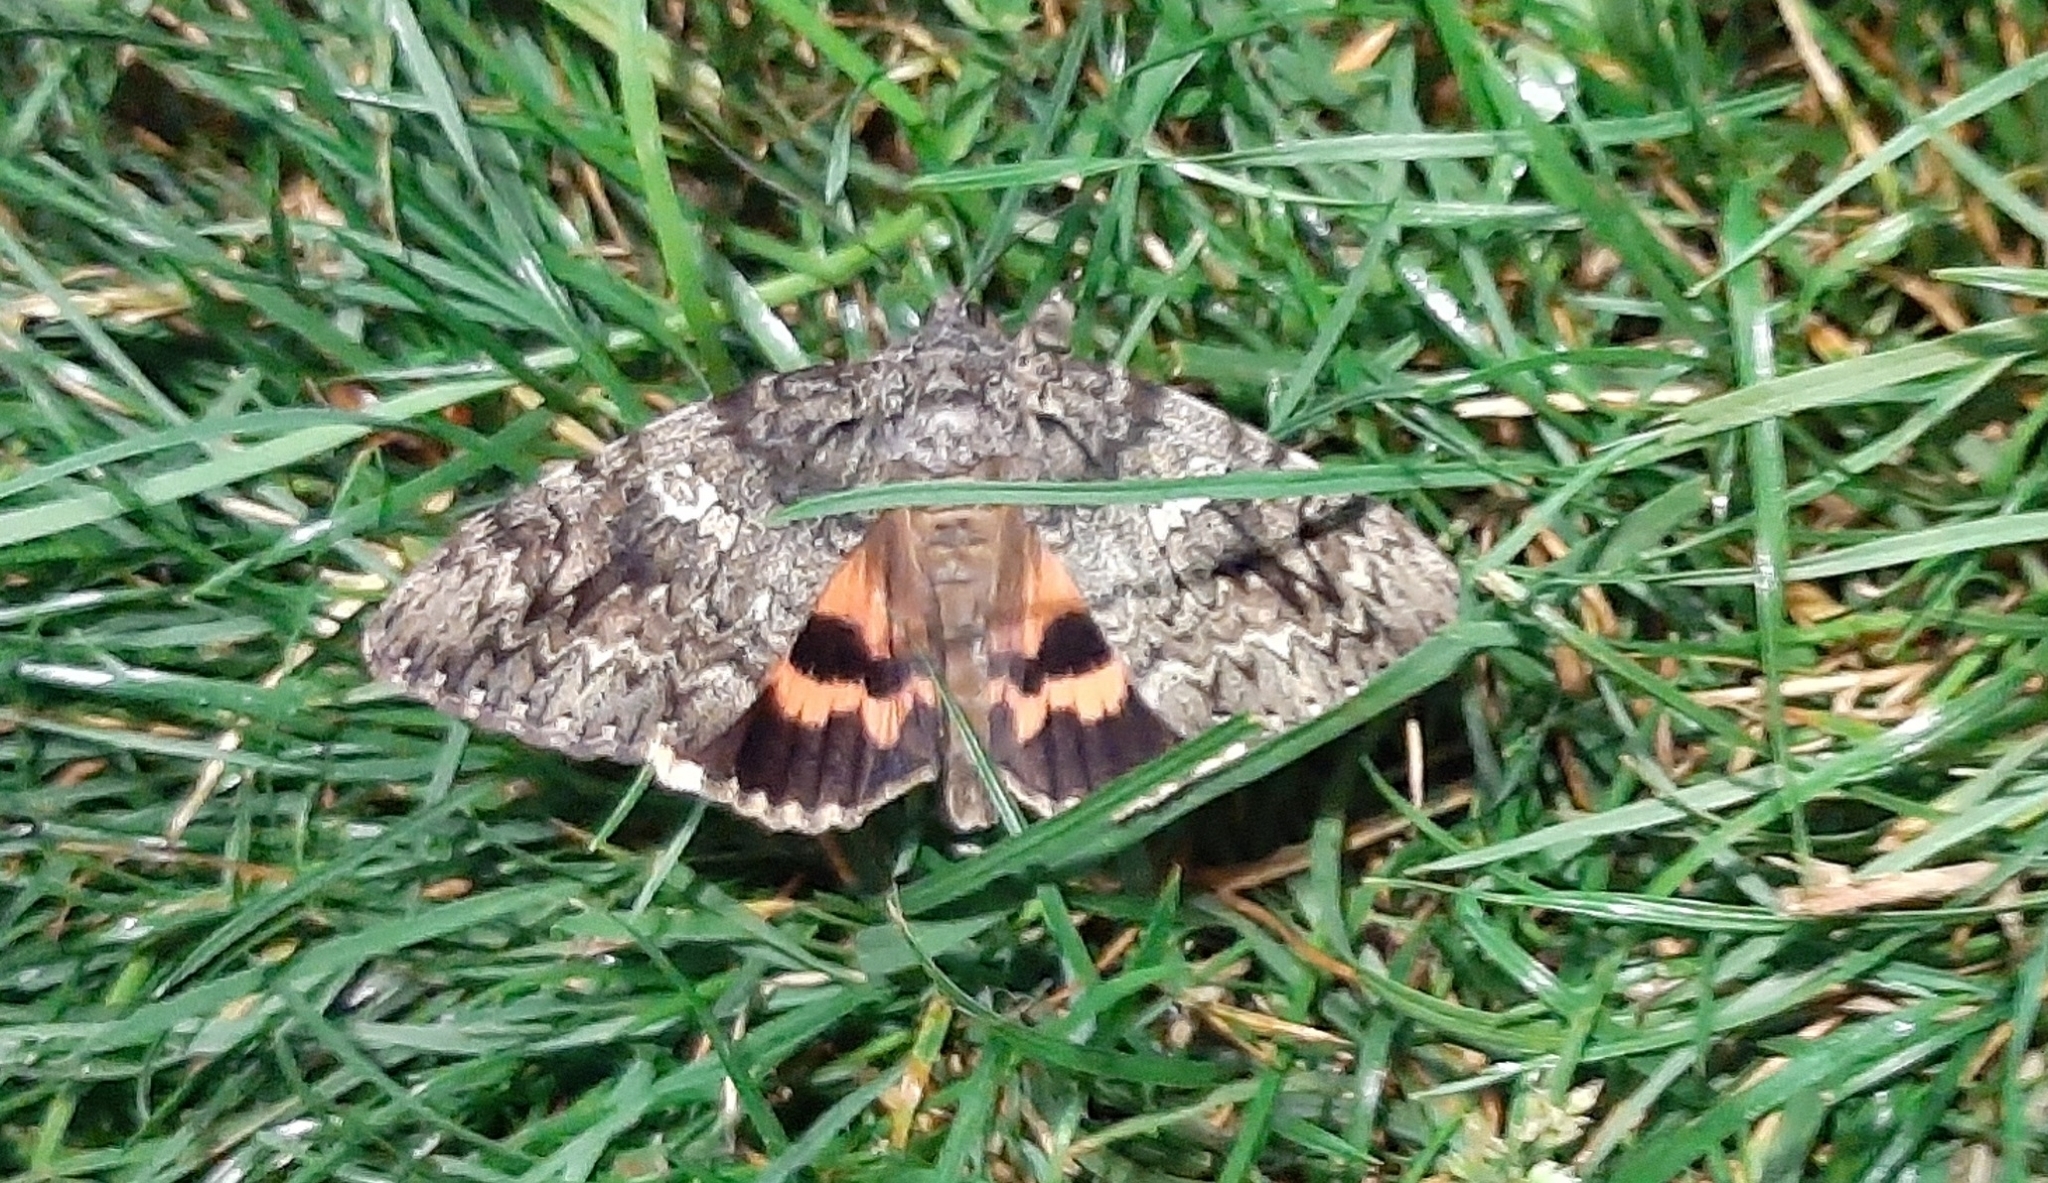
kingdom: Animalia
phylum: Arthropoda
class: Insecta
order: Lepidoptera
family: Erebidae
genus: Catocala
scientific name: Catocala ilia
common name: Ilia underwing
